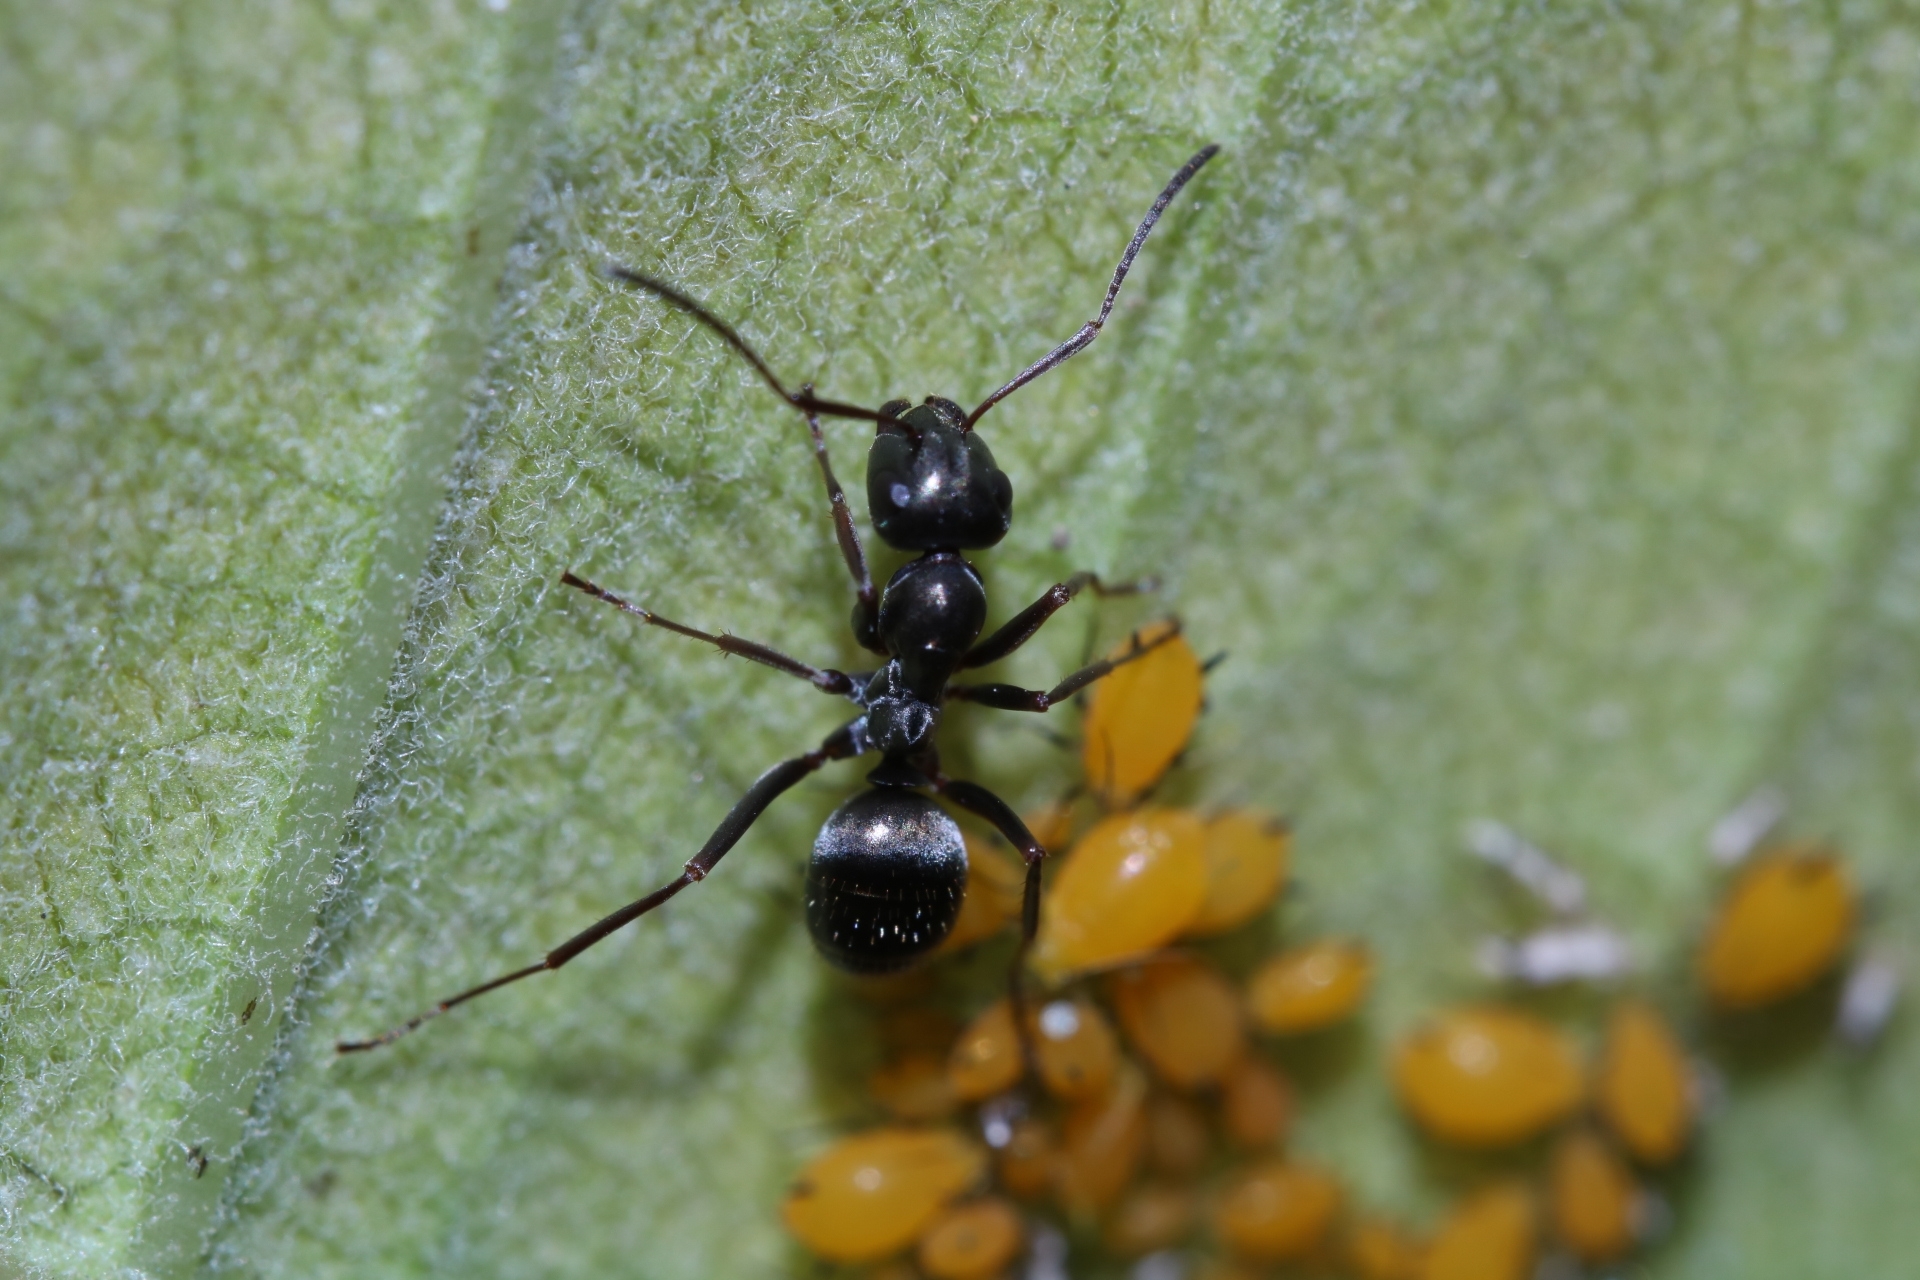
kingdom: Animalia
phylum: Arthropoda
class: Insecta
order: Hymenoptera
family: Formicidae
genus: Formica
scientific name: Formica glacialis
